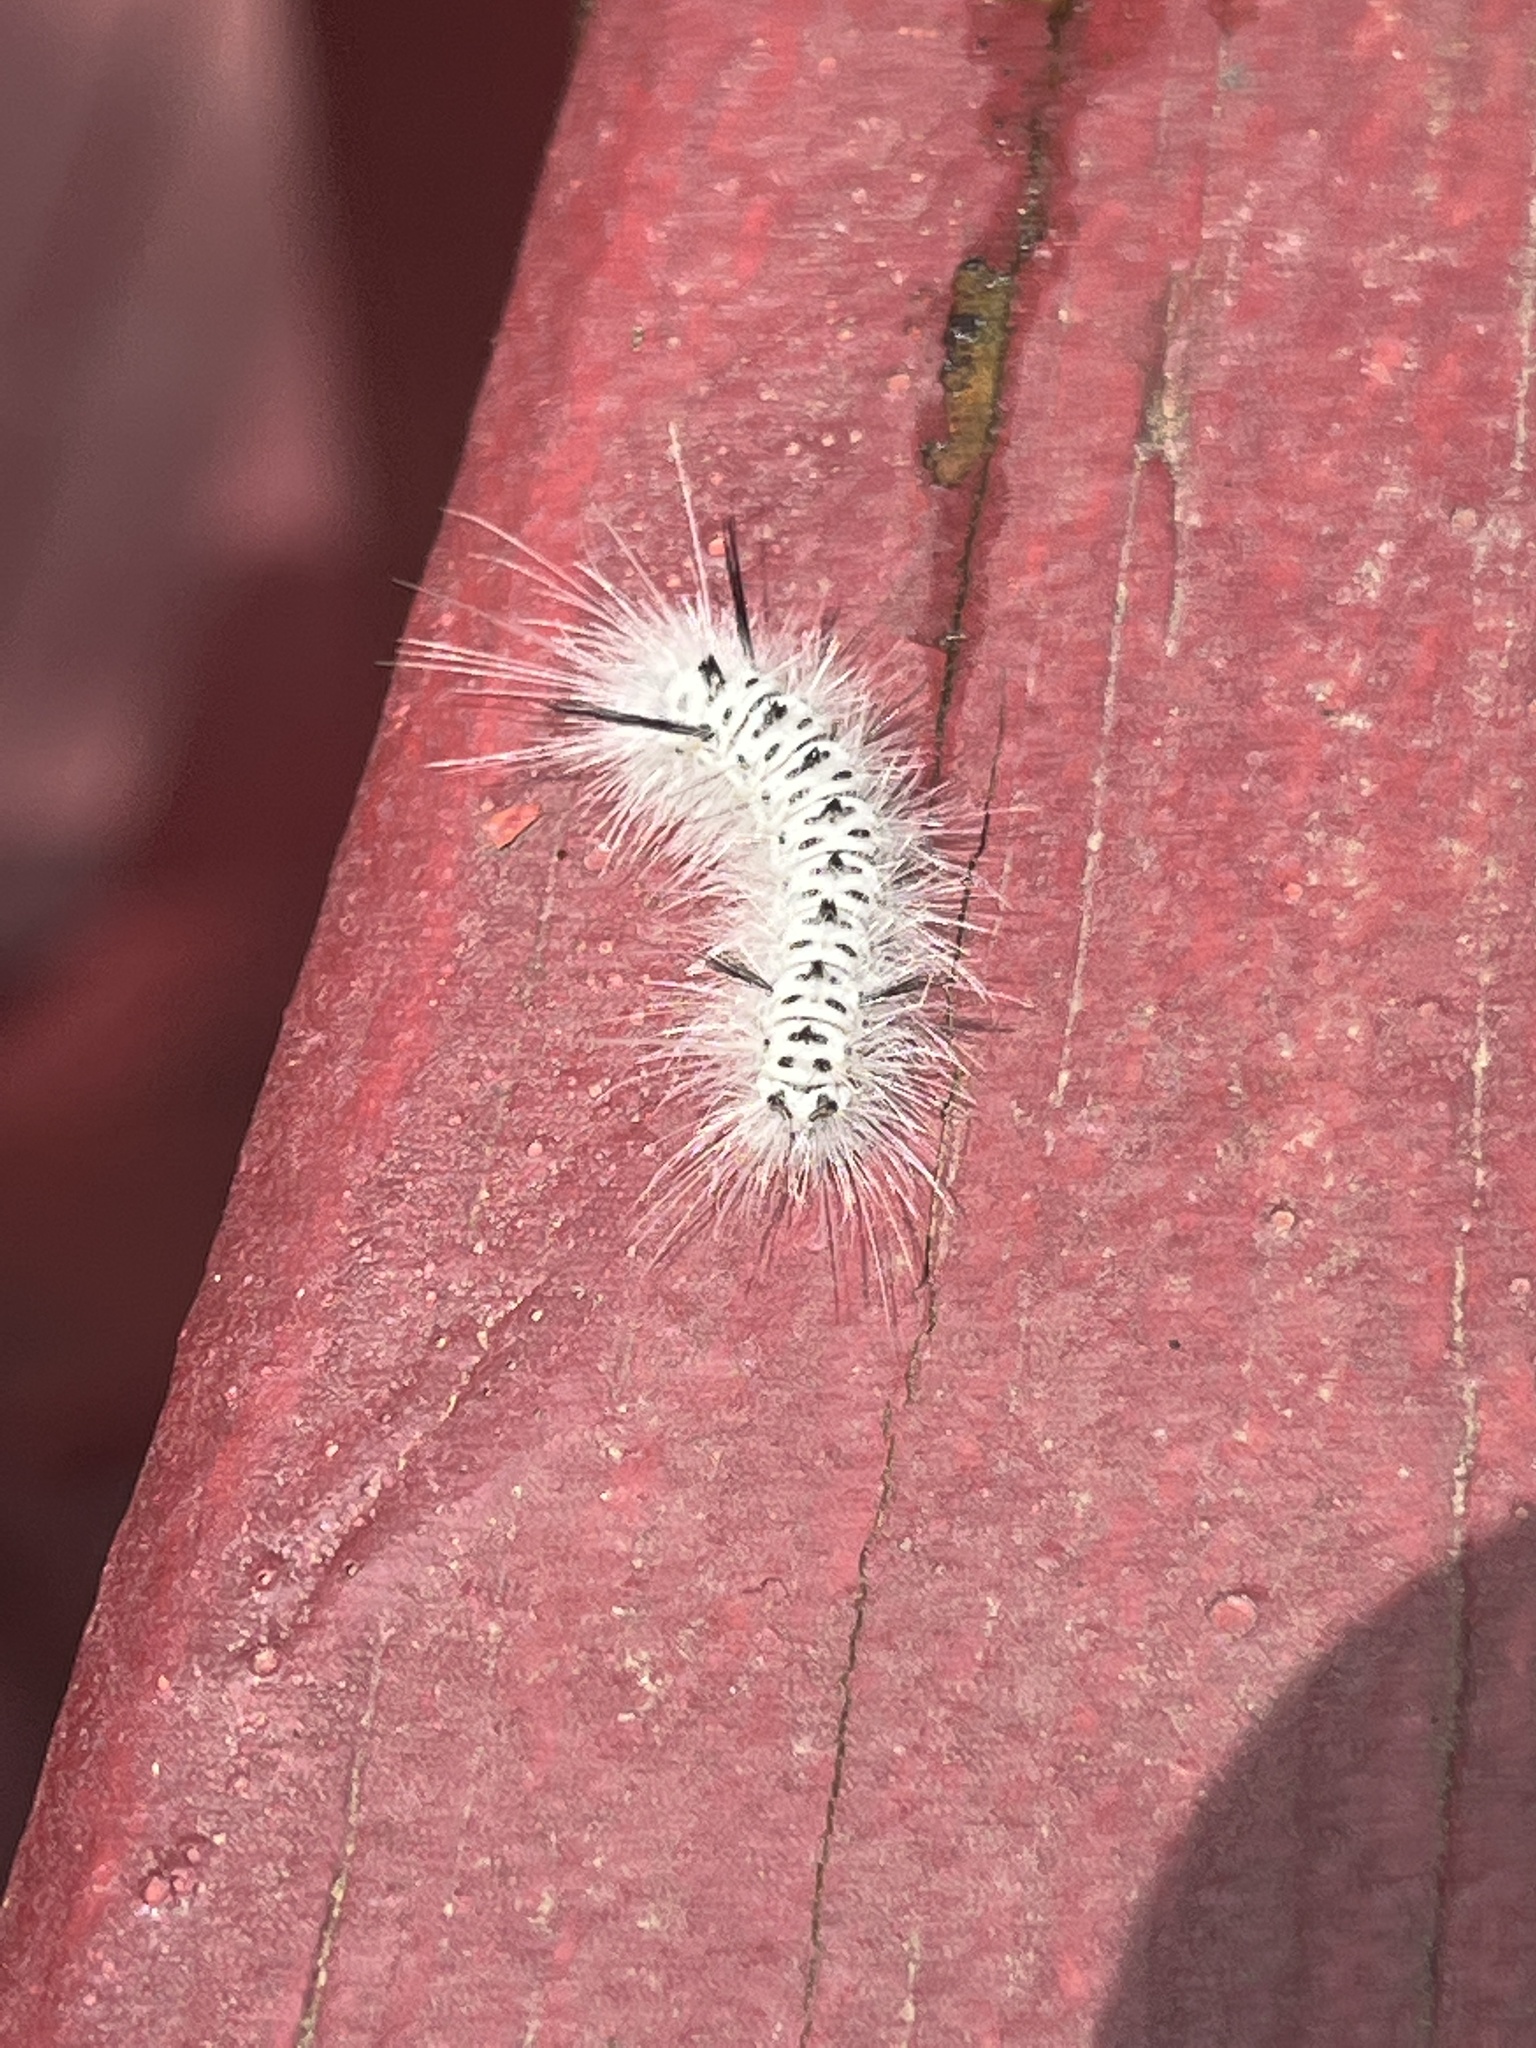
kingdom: Animalia
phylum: Arthropoda
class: Insecta
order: Lepidoptera
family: Erebidae
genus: Lophocampa
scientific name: Lophocampa caryae
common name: Hickory tussock moth
